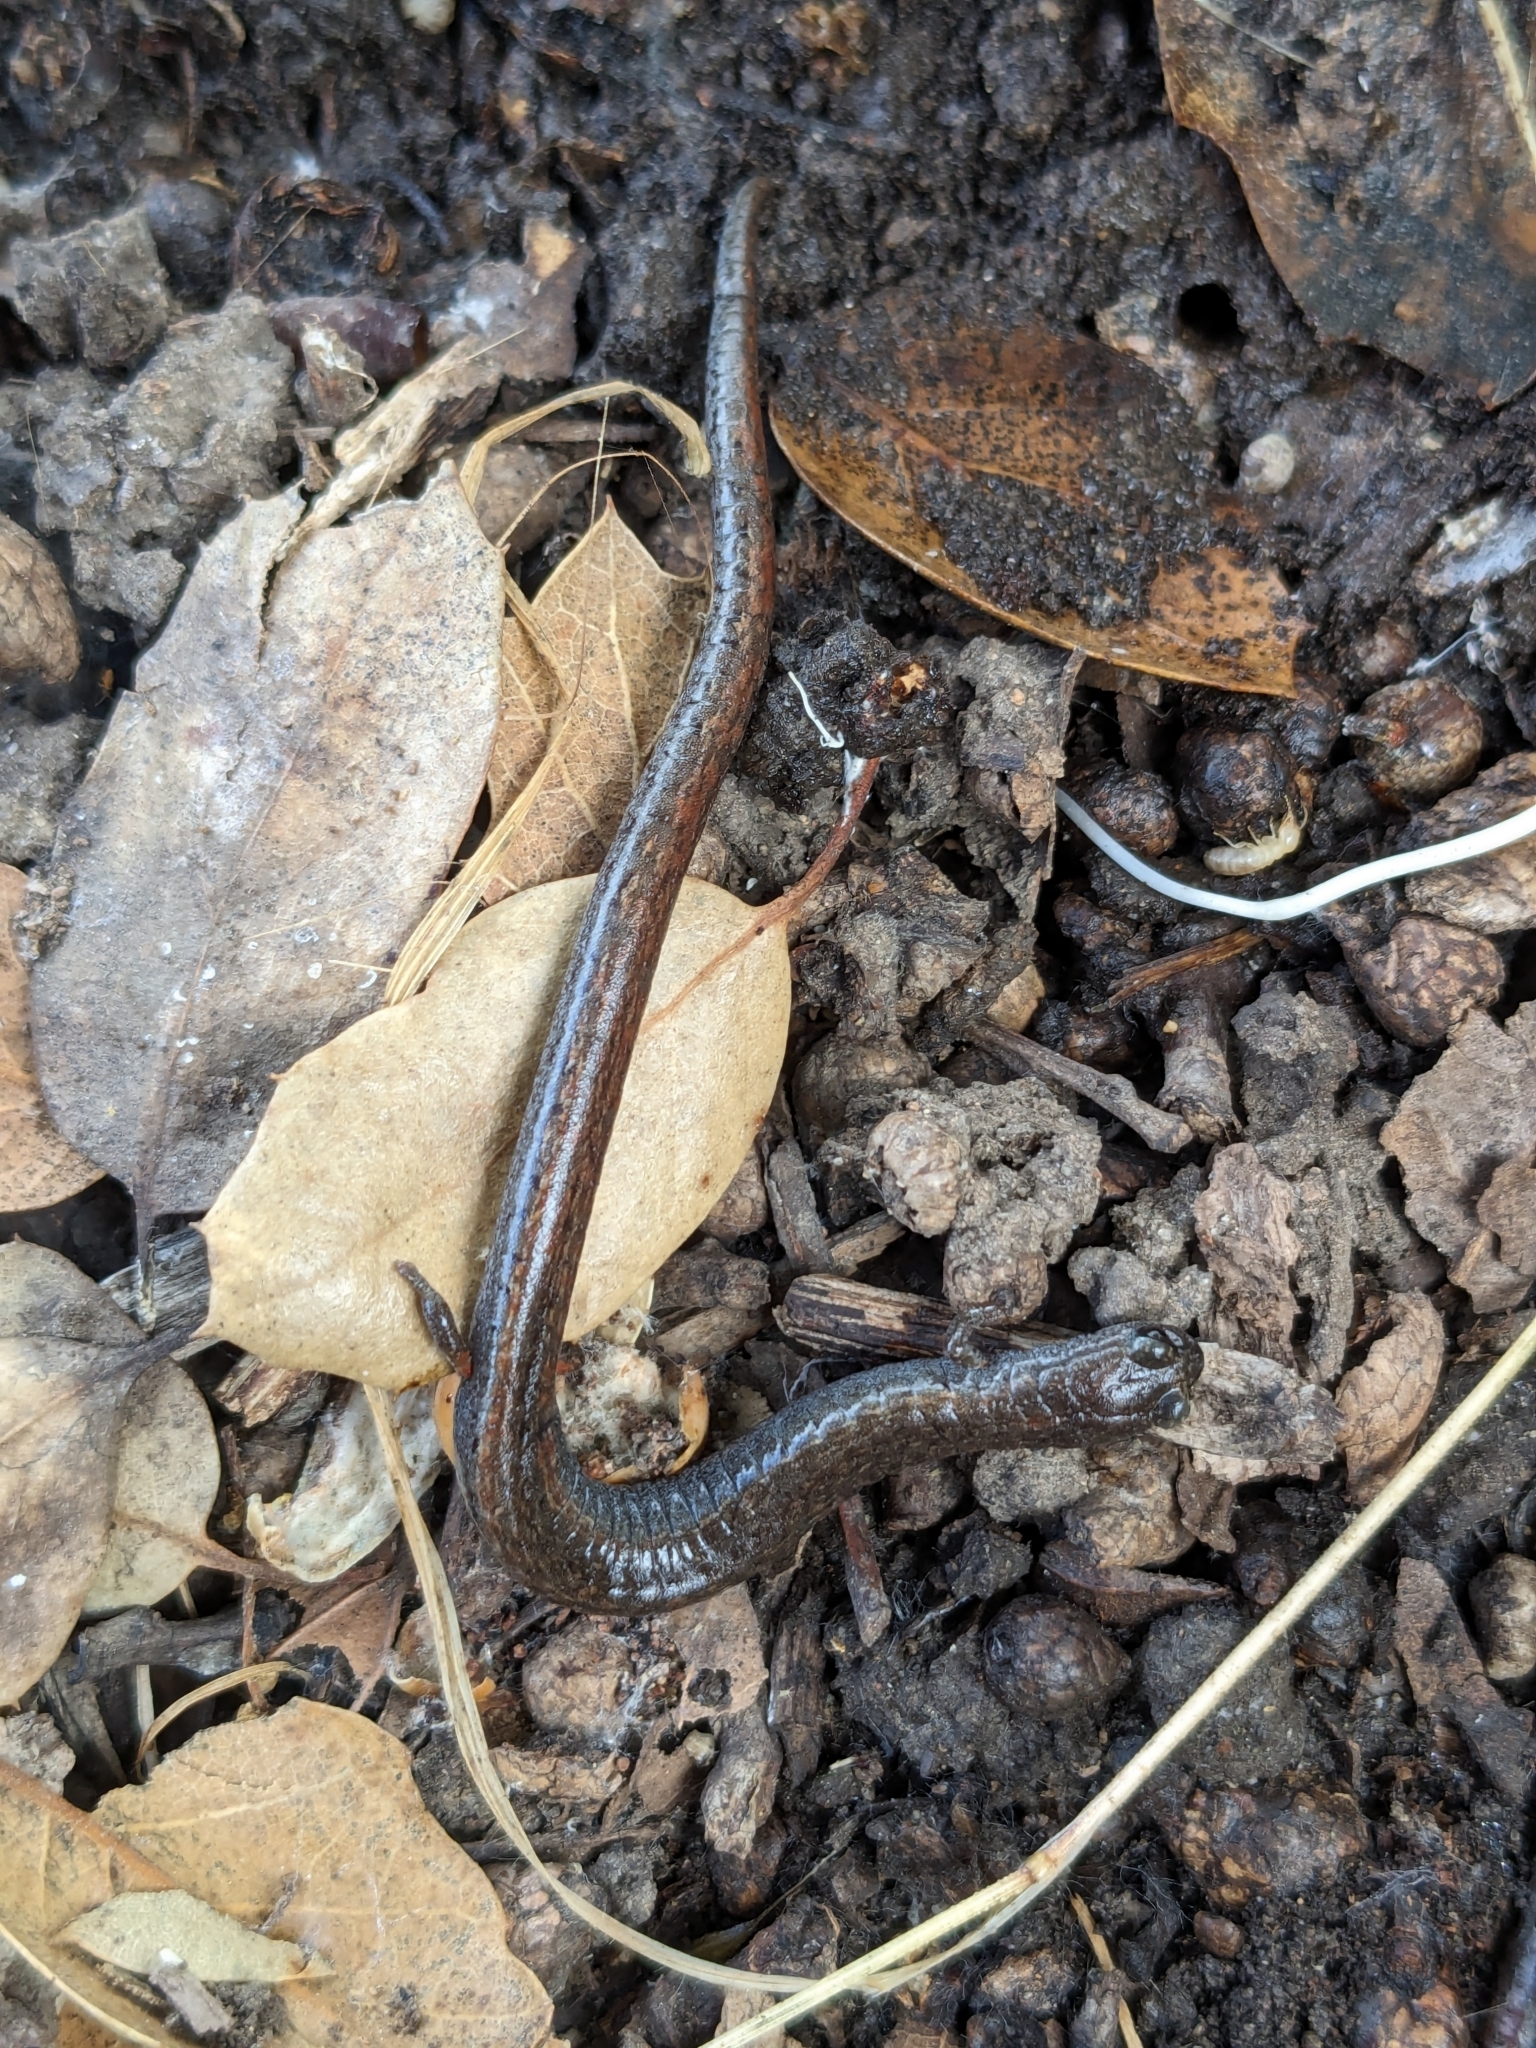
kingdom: Animalia
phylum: Chordata
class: Amphibia
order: Caudata
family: Plethodontidae
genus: Batrachoseps
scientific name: Batrachoseps attenuatus
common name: California slender salamander
